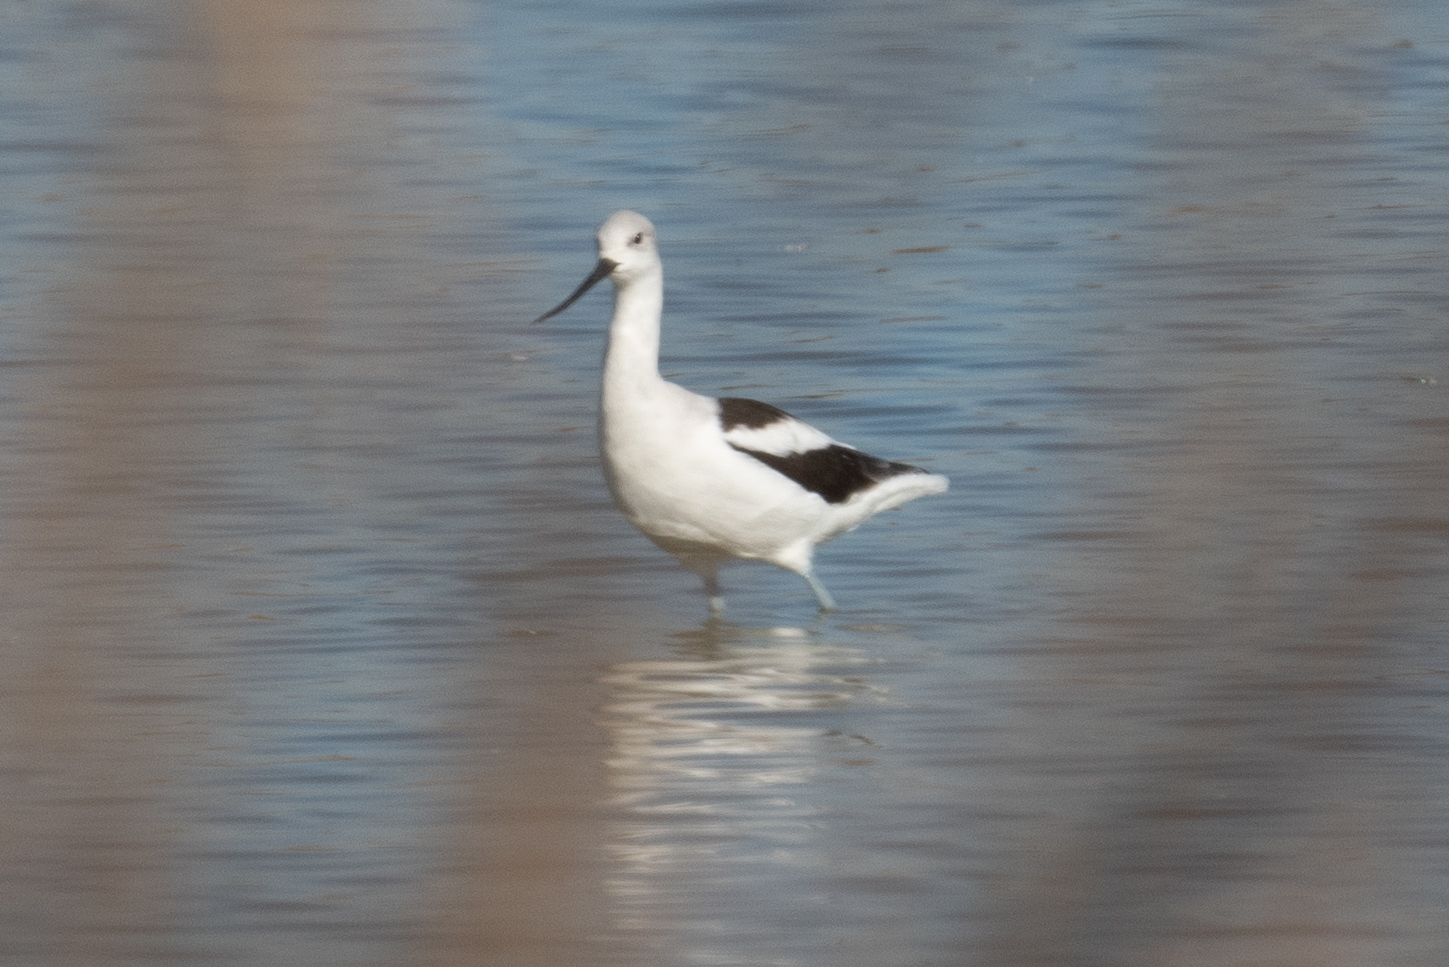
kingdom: Animalia
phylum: Chordata
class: Aves
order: Charadriiformes
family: Recurvirostridae
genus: Recurvirostra
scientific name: Recurvirostra americana
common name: American avocet
